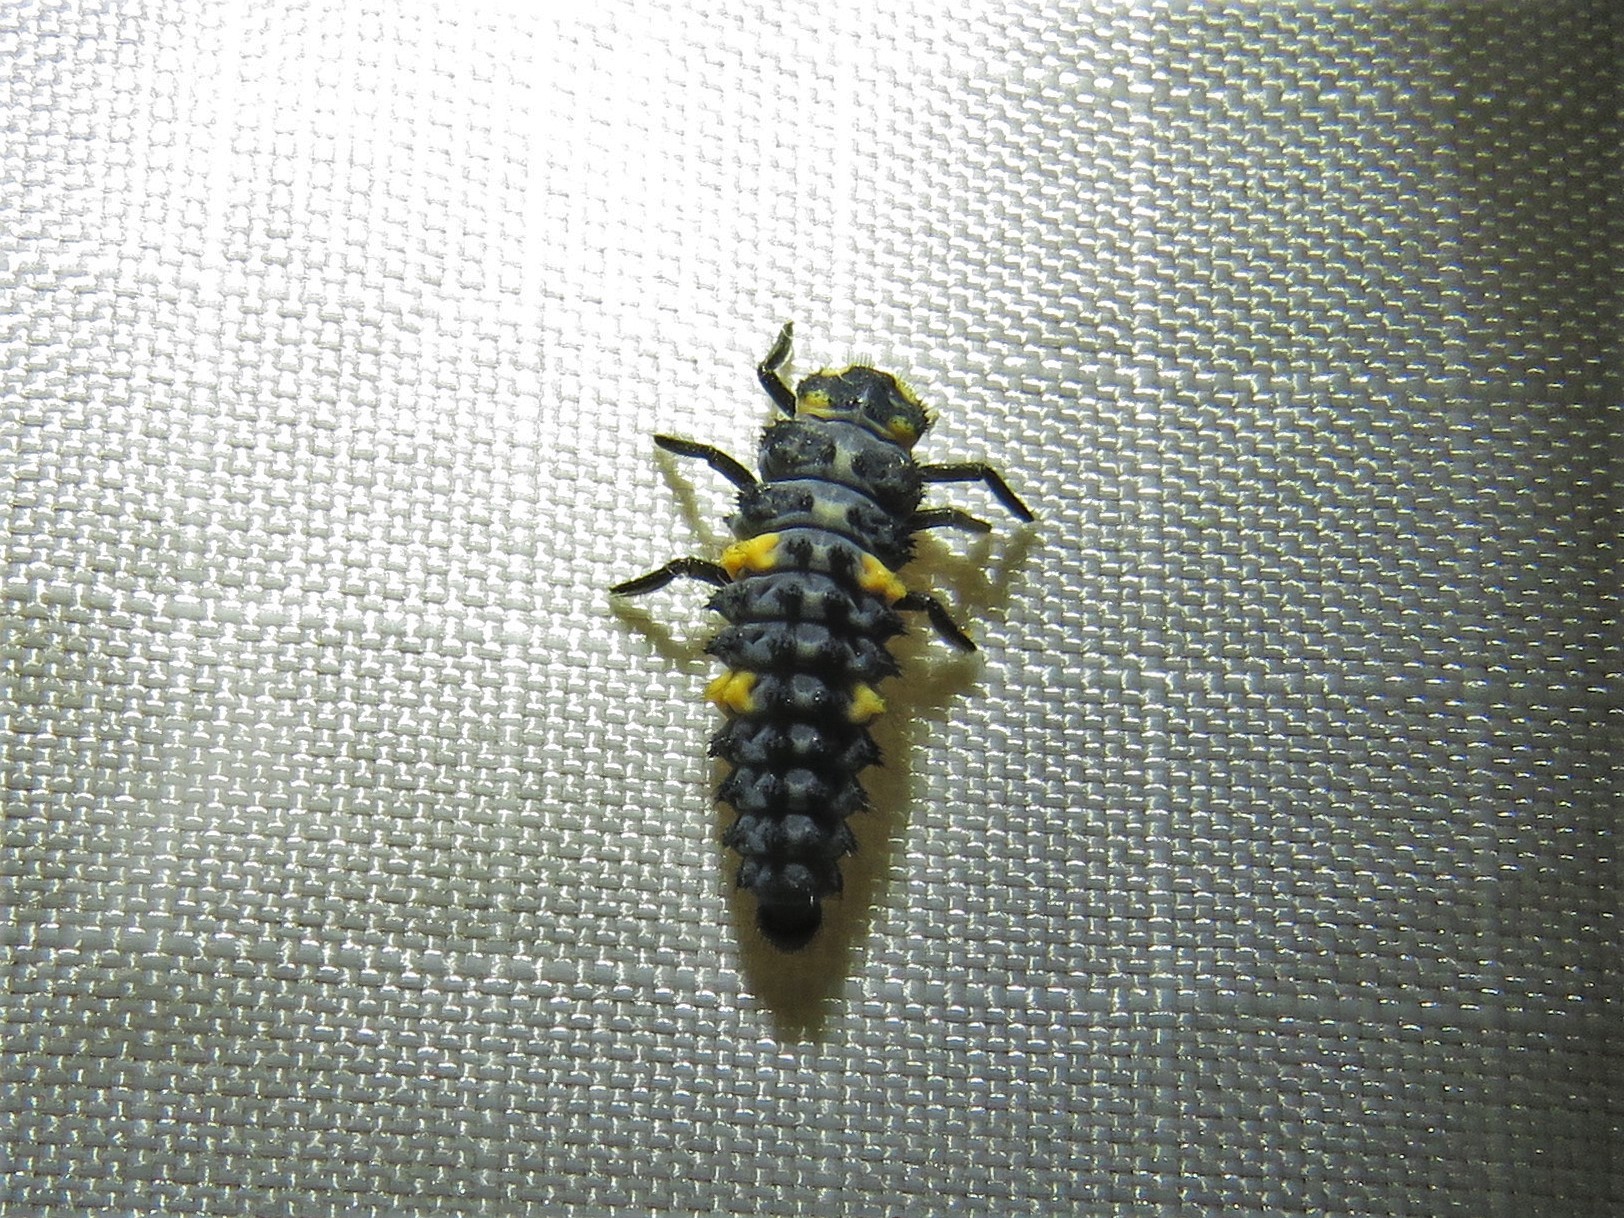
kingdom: Animalia
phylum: Arthropoda
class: Insecta
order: Coleoptera
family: Coccinellidae
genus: Coccinella
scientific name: Coccinella septempunctata
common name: Sevenspotted lady beetle
